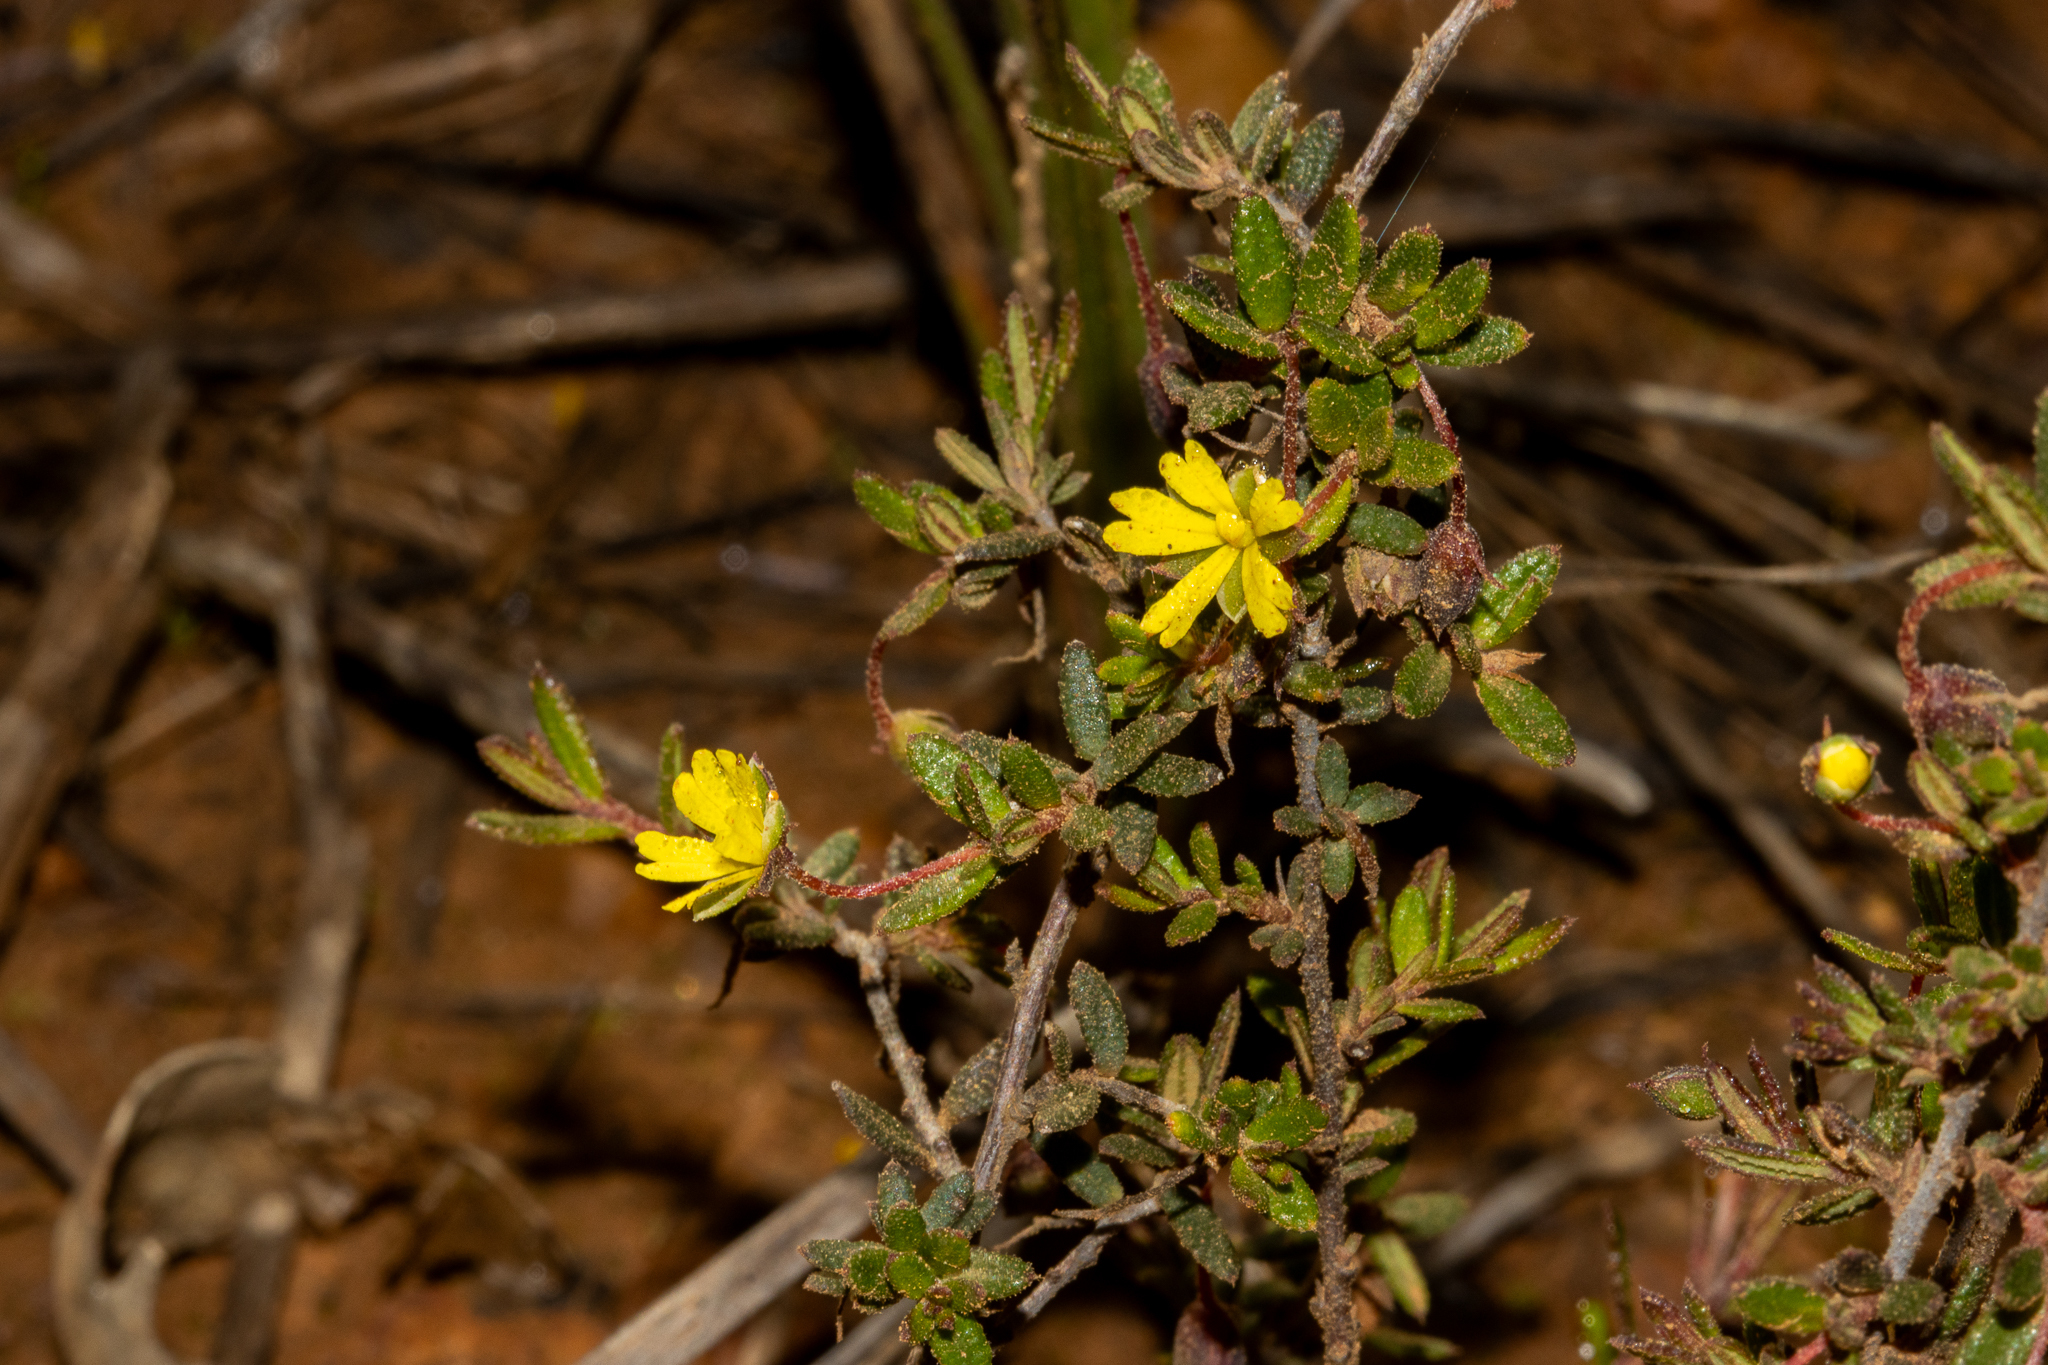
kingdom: Plantae
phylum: Tracheophyta
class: Magnoliopsida
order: Dilleniales
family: Dilleniaceae
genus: Hibbertia
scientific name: Hibbertia
